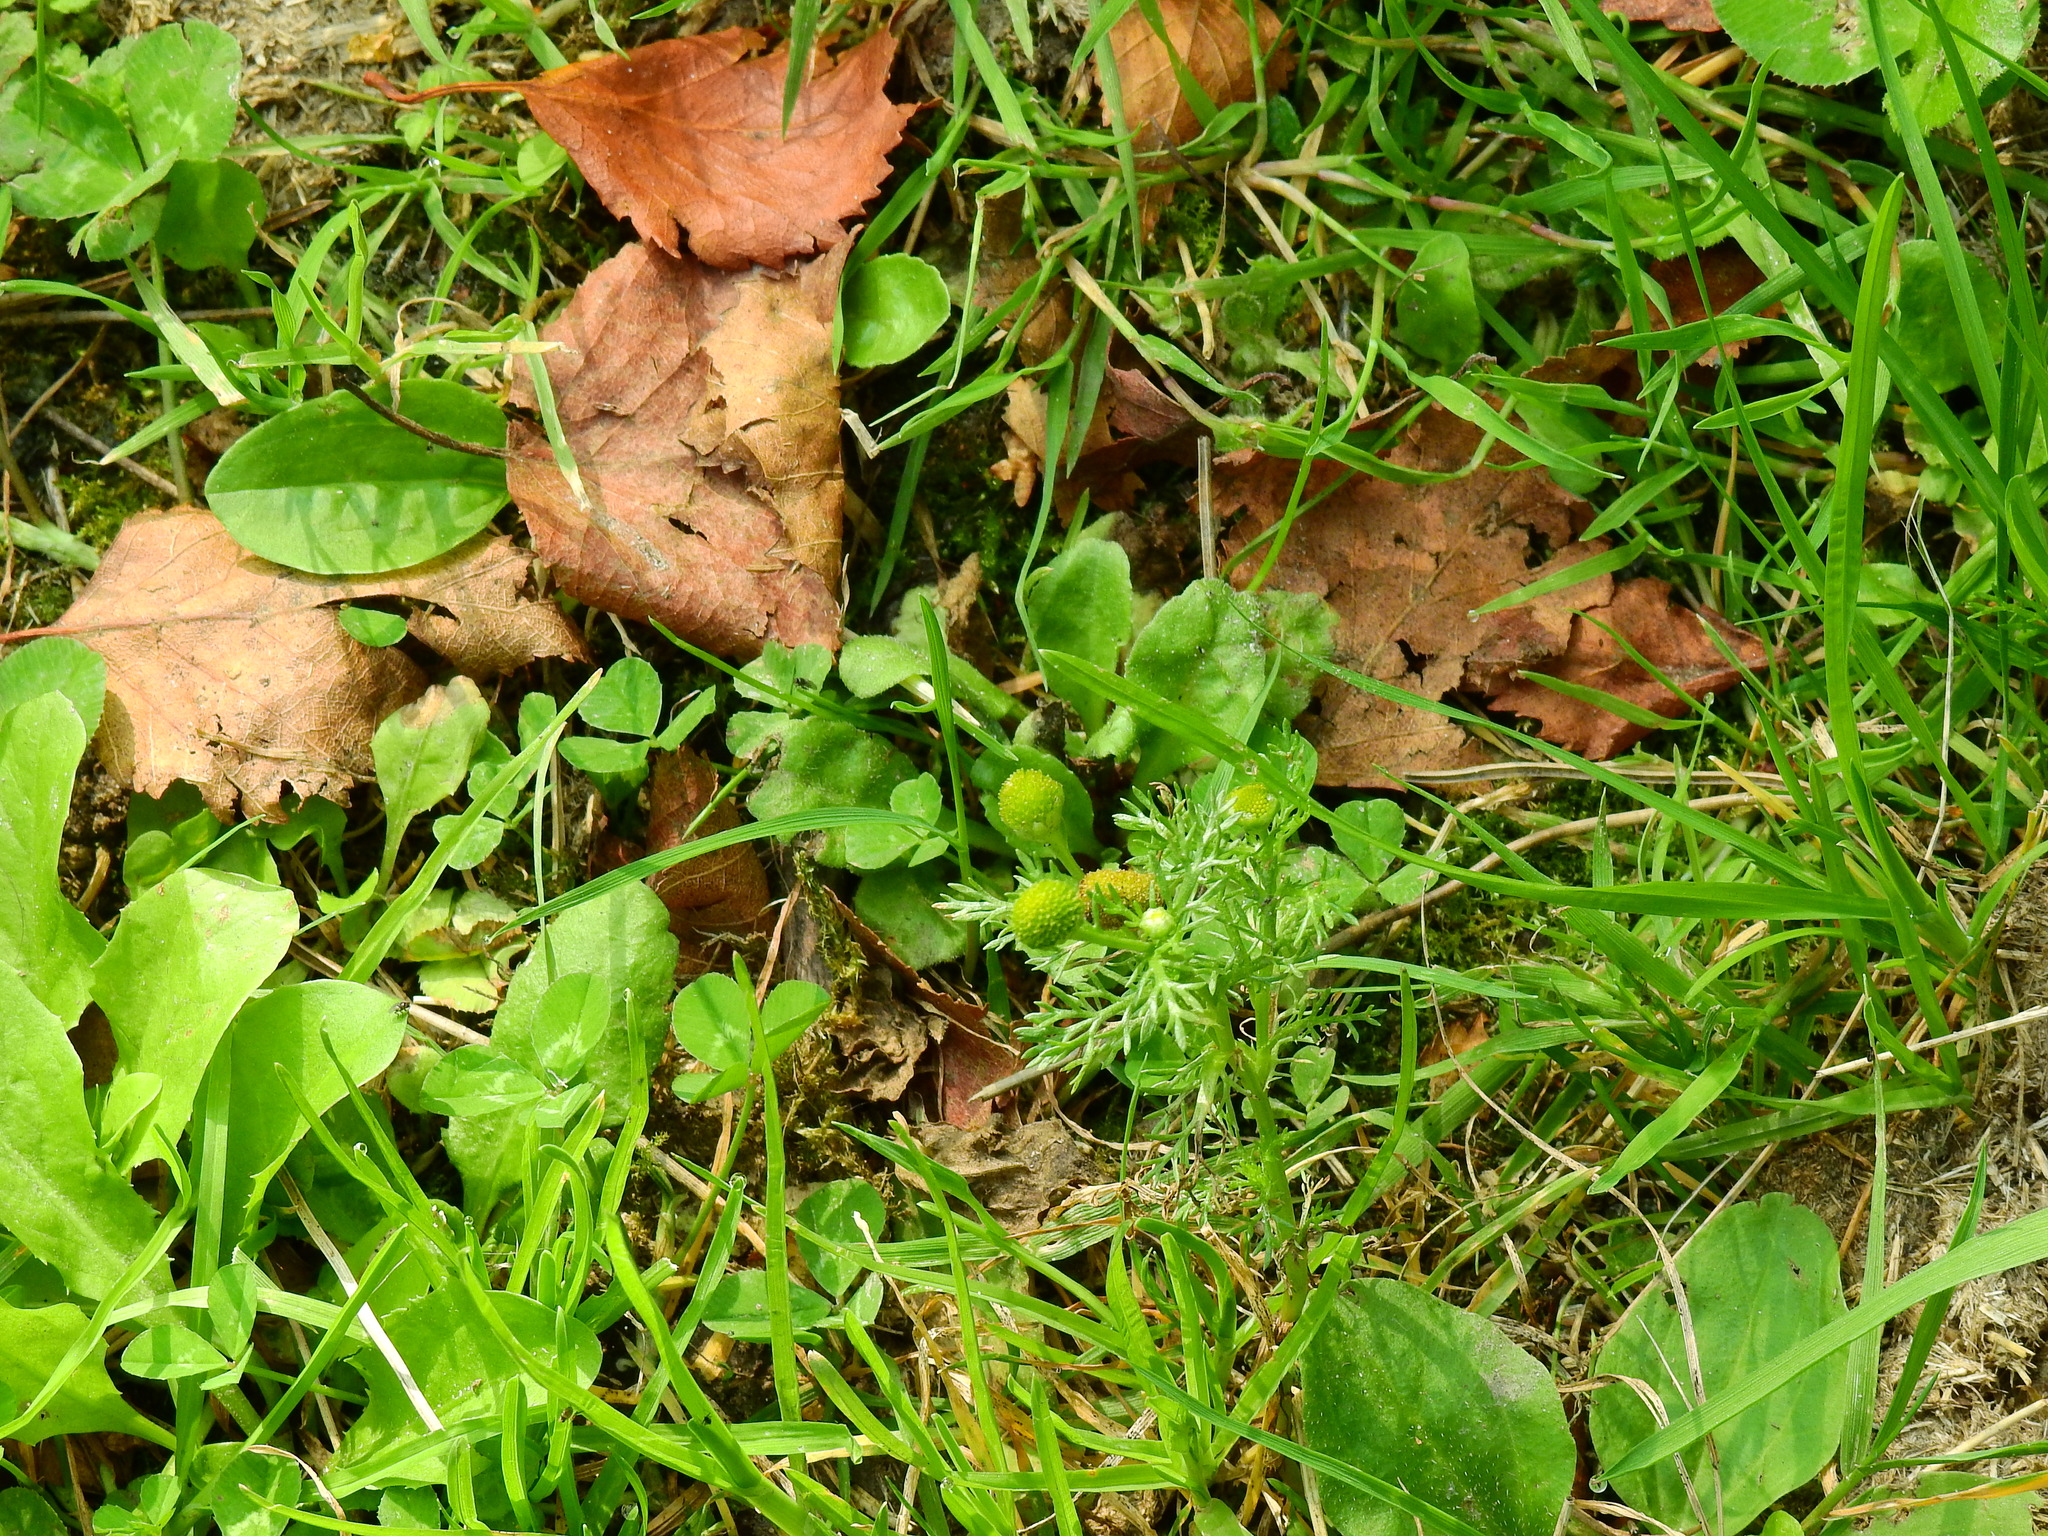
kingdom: Plantae
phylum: Tracheophyta
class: Magnoliopsida
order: Asterales
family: Asteraceae
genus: Matricaria
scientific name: Matricaria discoidea
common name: Disc mayweed
